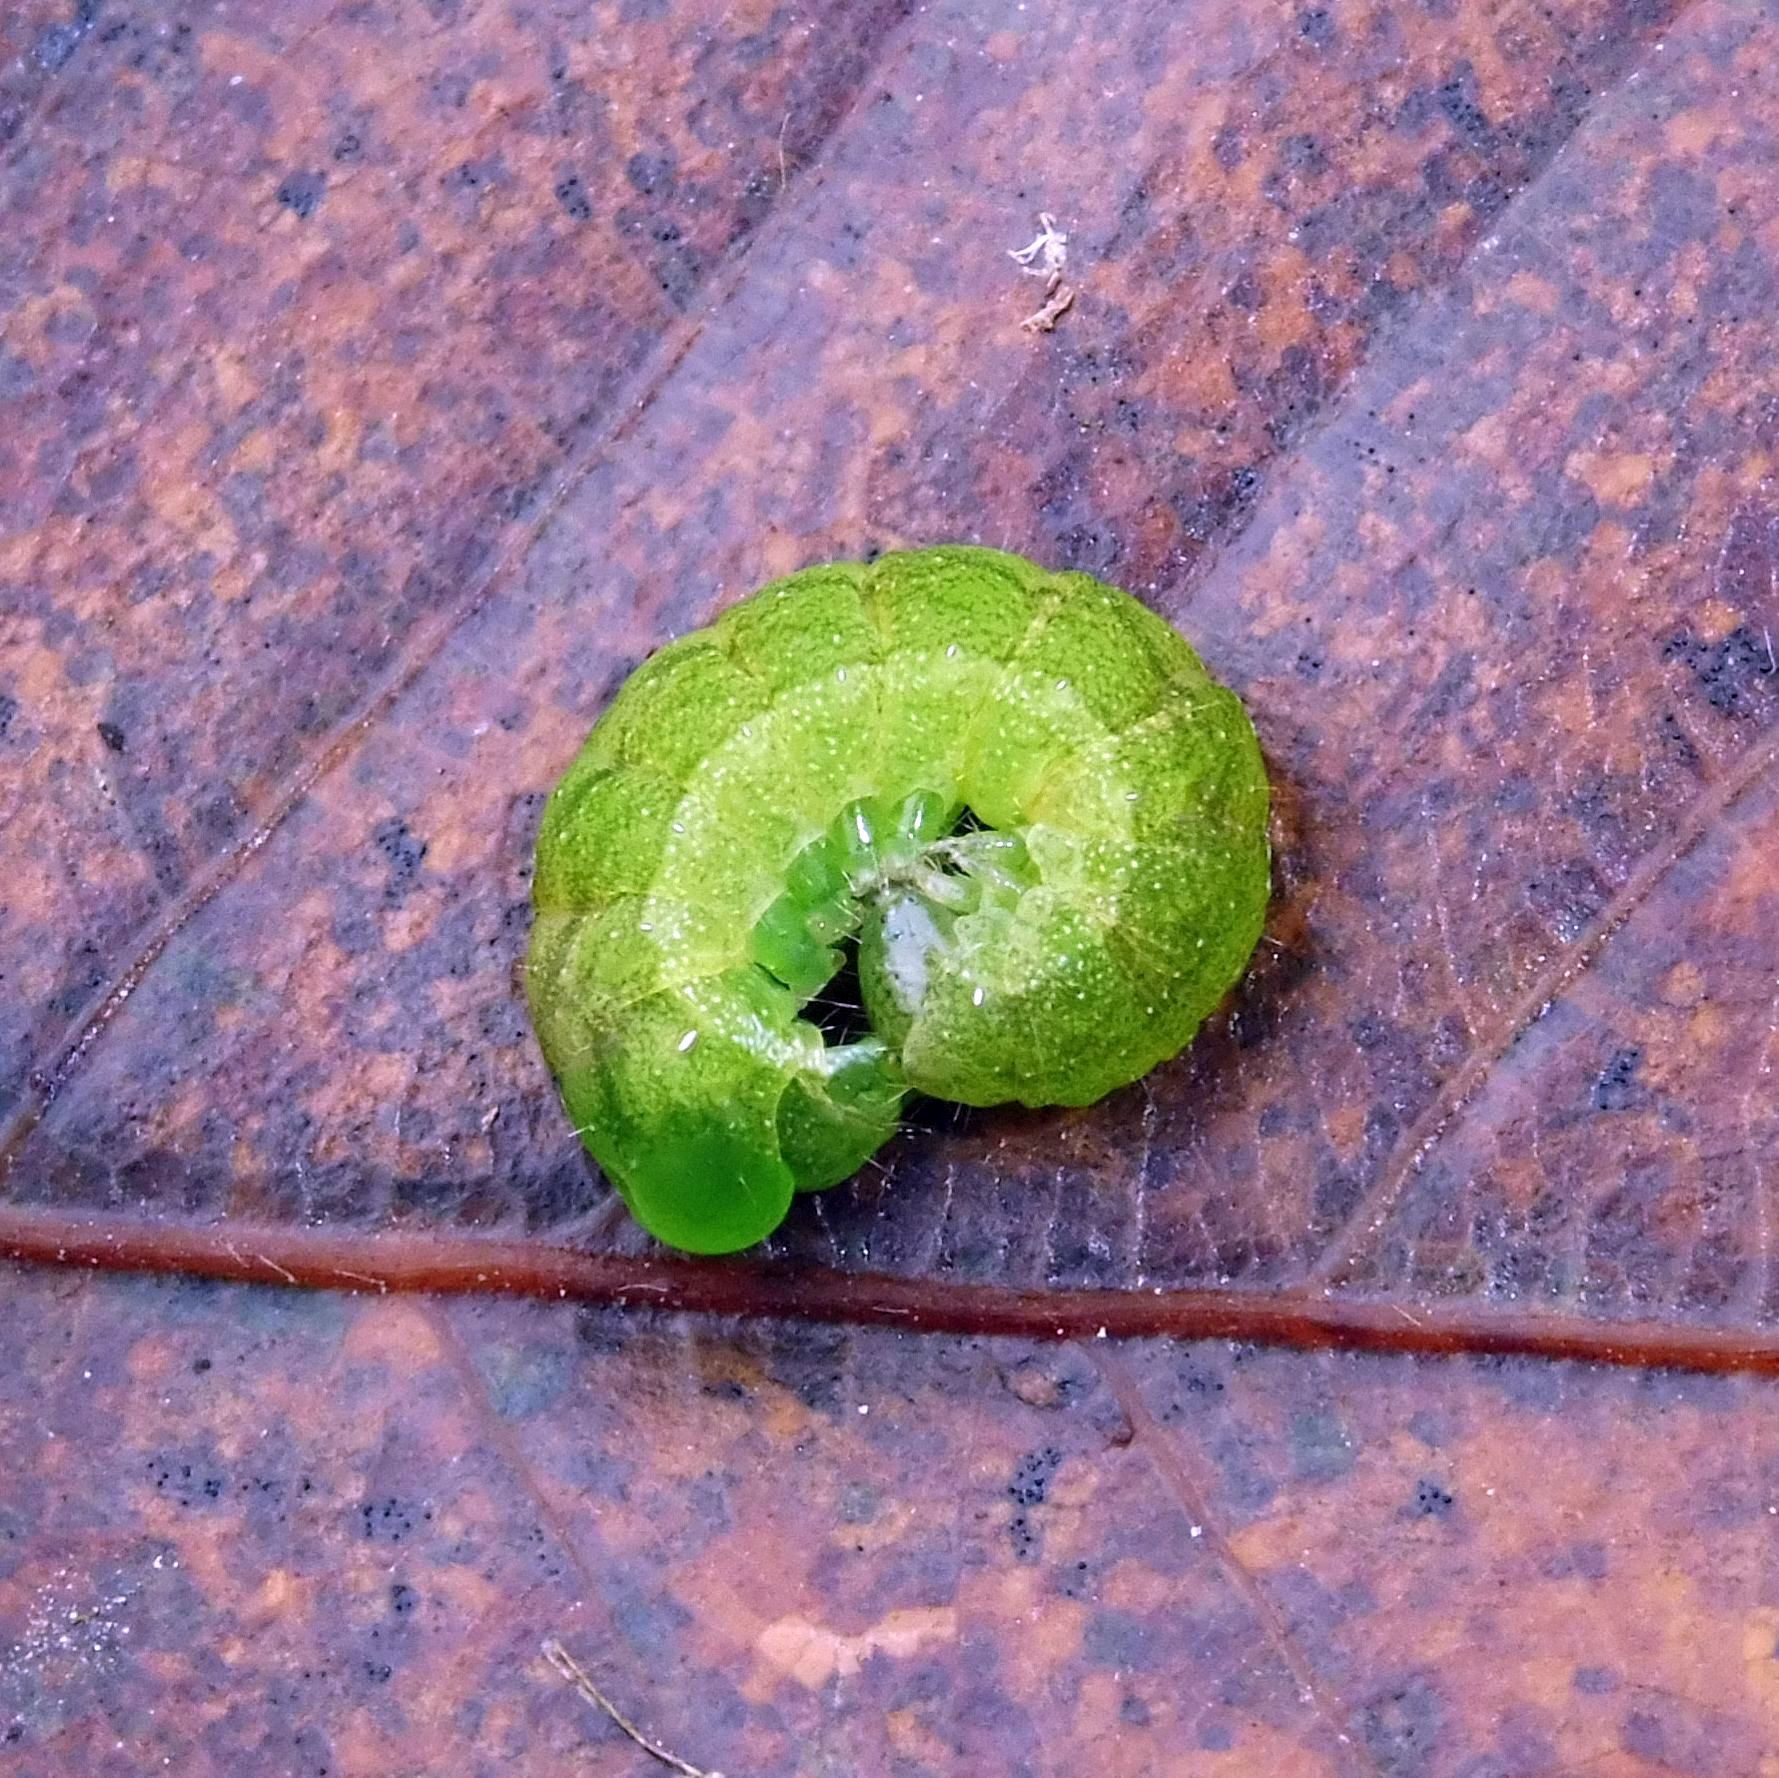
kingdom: Animalia
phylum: Arthropoda
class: Insecta
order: Lepidoptera
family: Noctuidae
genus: Phlogophora
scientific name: Phlogophora meticulosa
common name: Angle shades
